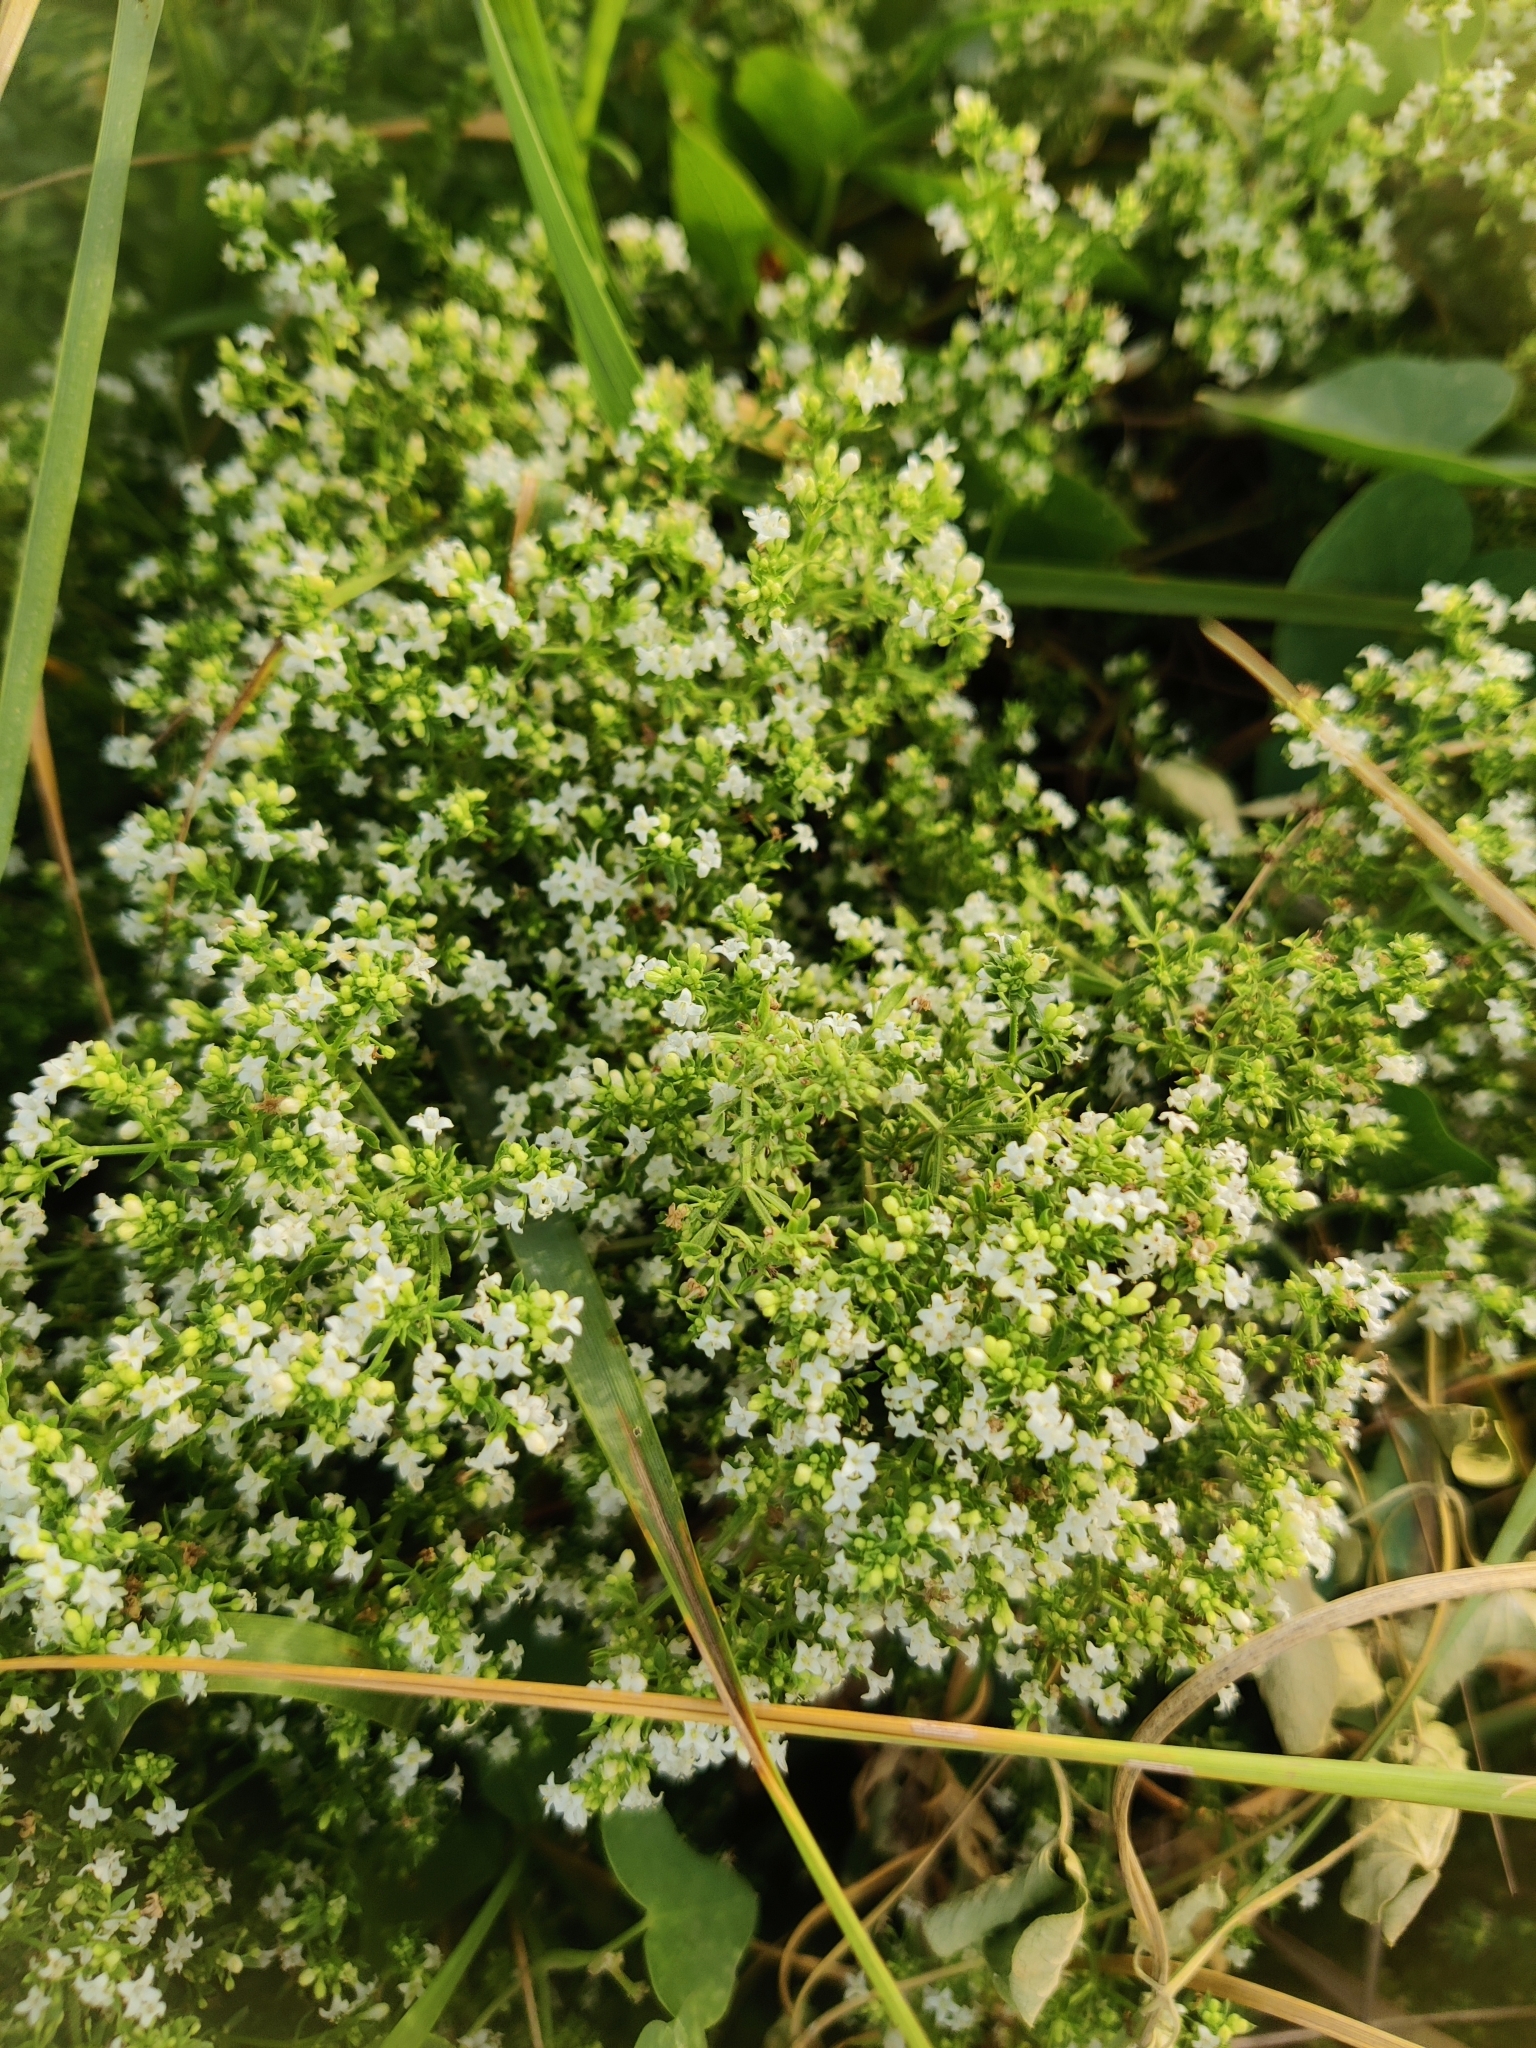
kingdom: Plantae
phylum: Tracheophyta
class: Magnoliopsida
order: Gentianales
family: Rubiaceae
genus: Galium
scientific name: Galium humifusum
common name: Spreading bedstraw
